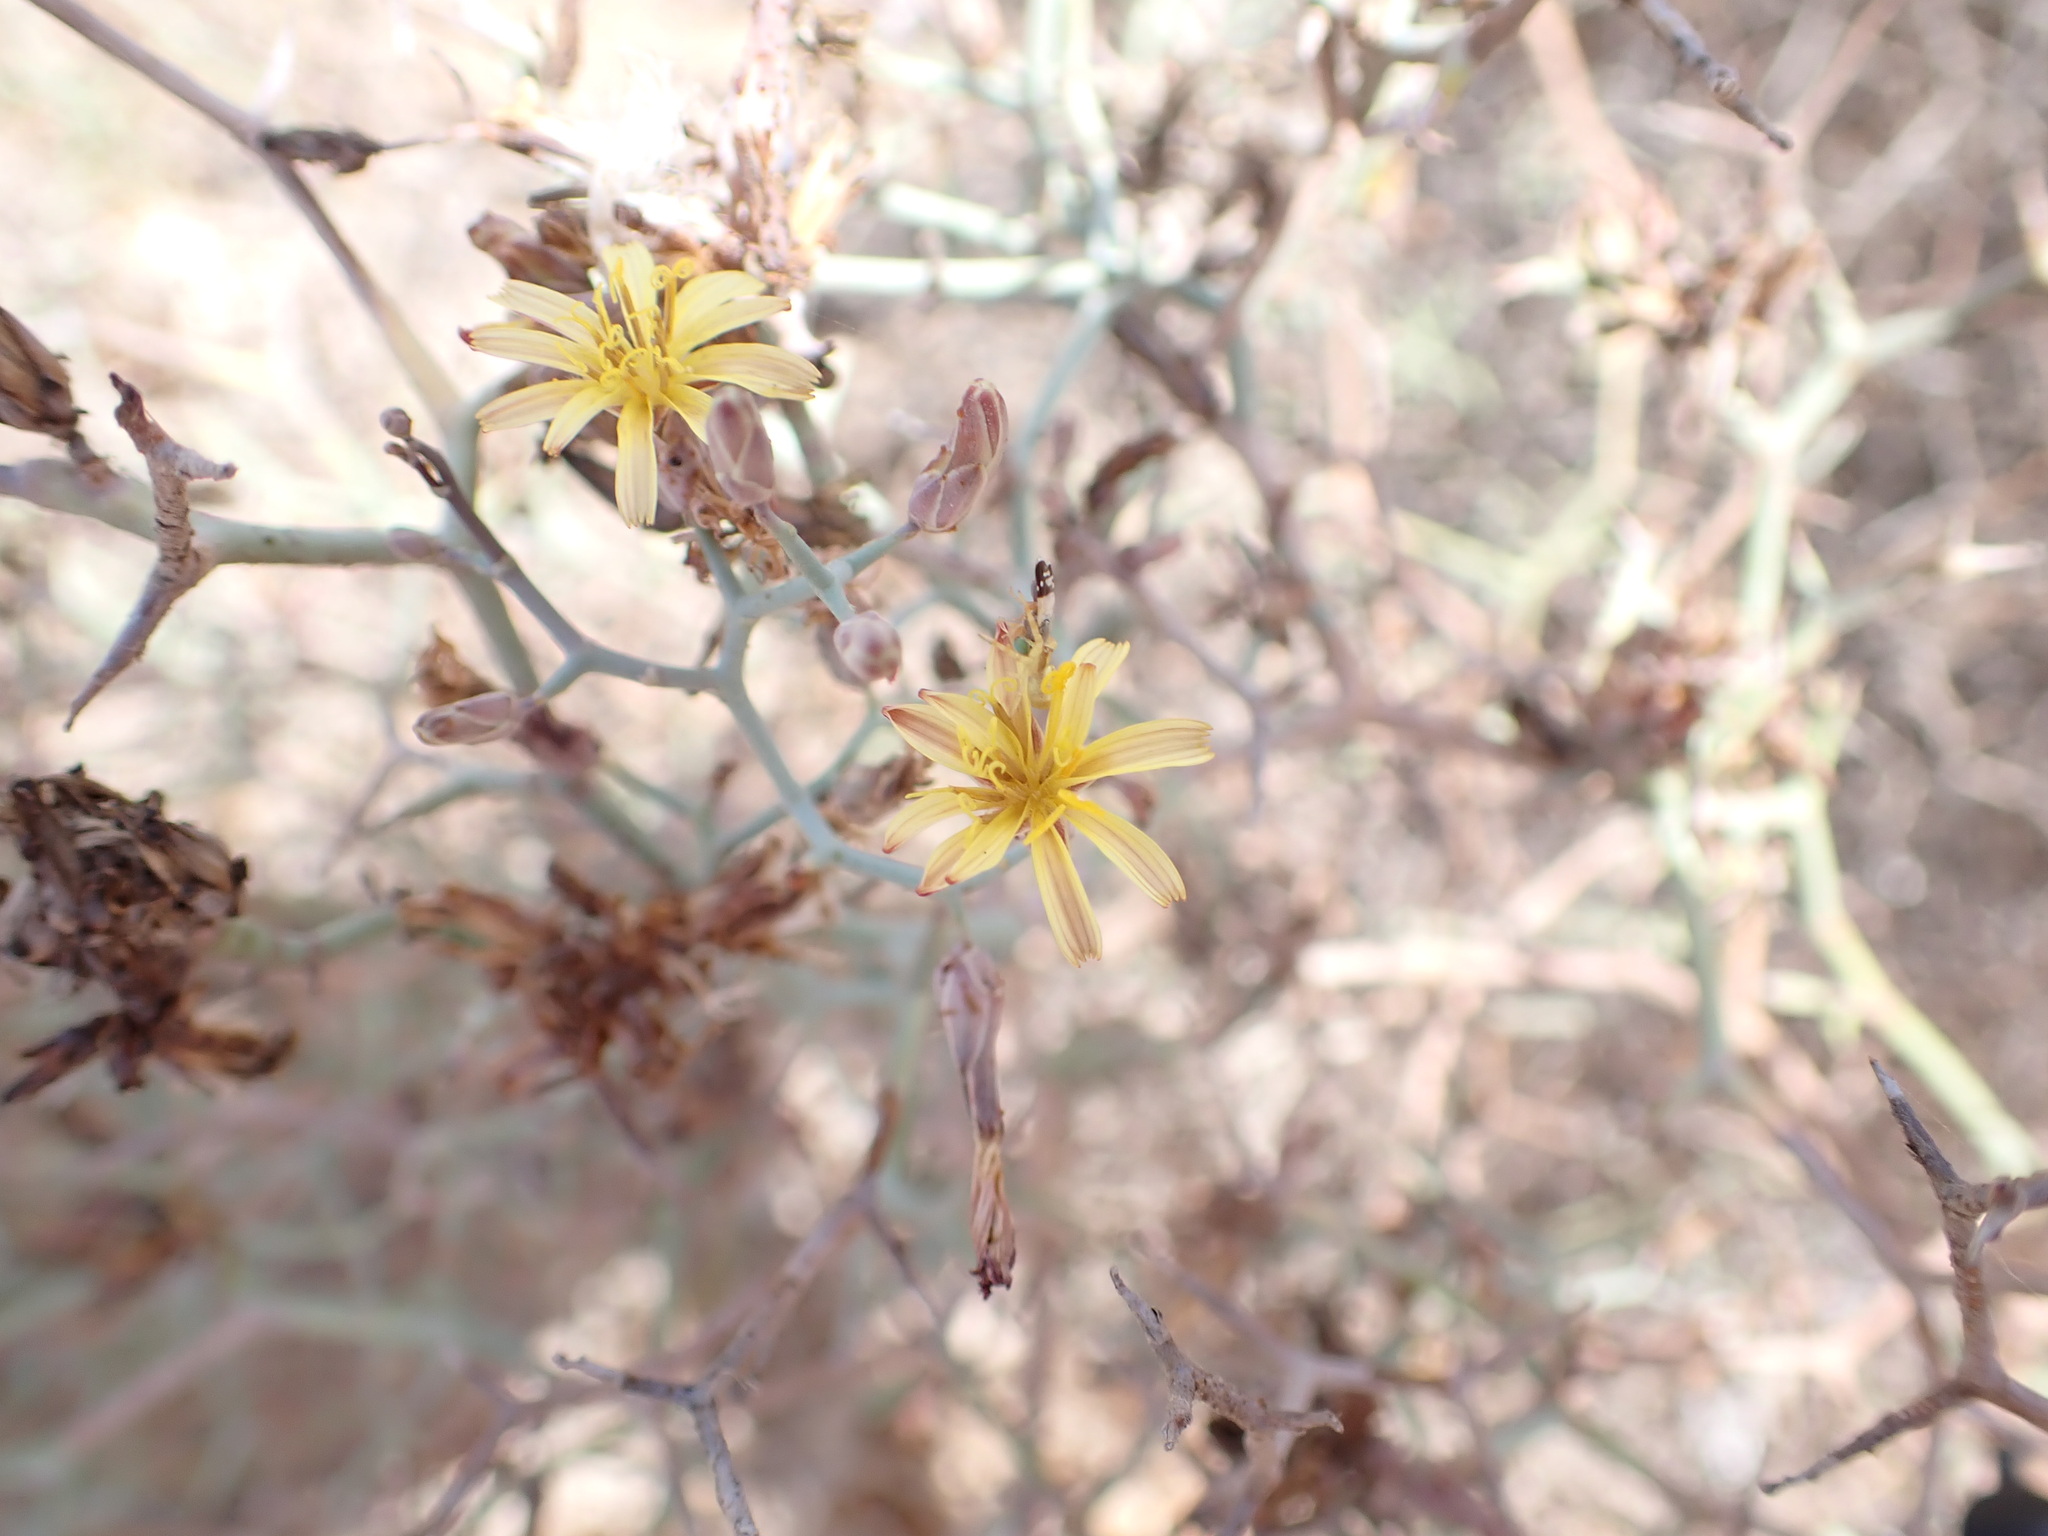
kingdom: Plantae
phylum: Tracheophyta
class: Magnoliopsida
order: Asterales
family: Asteraceae
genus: Launaea
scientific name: Launaea arborescens
